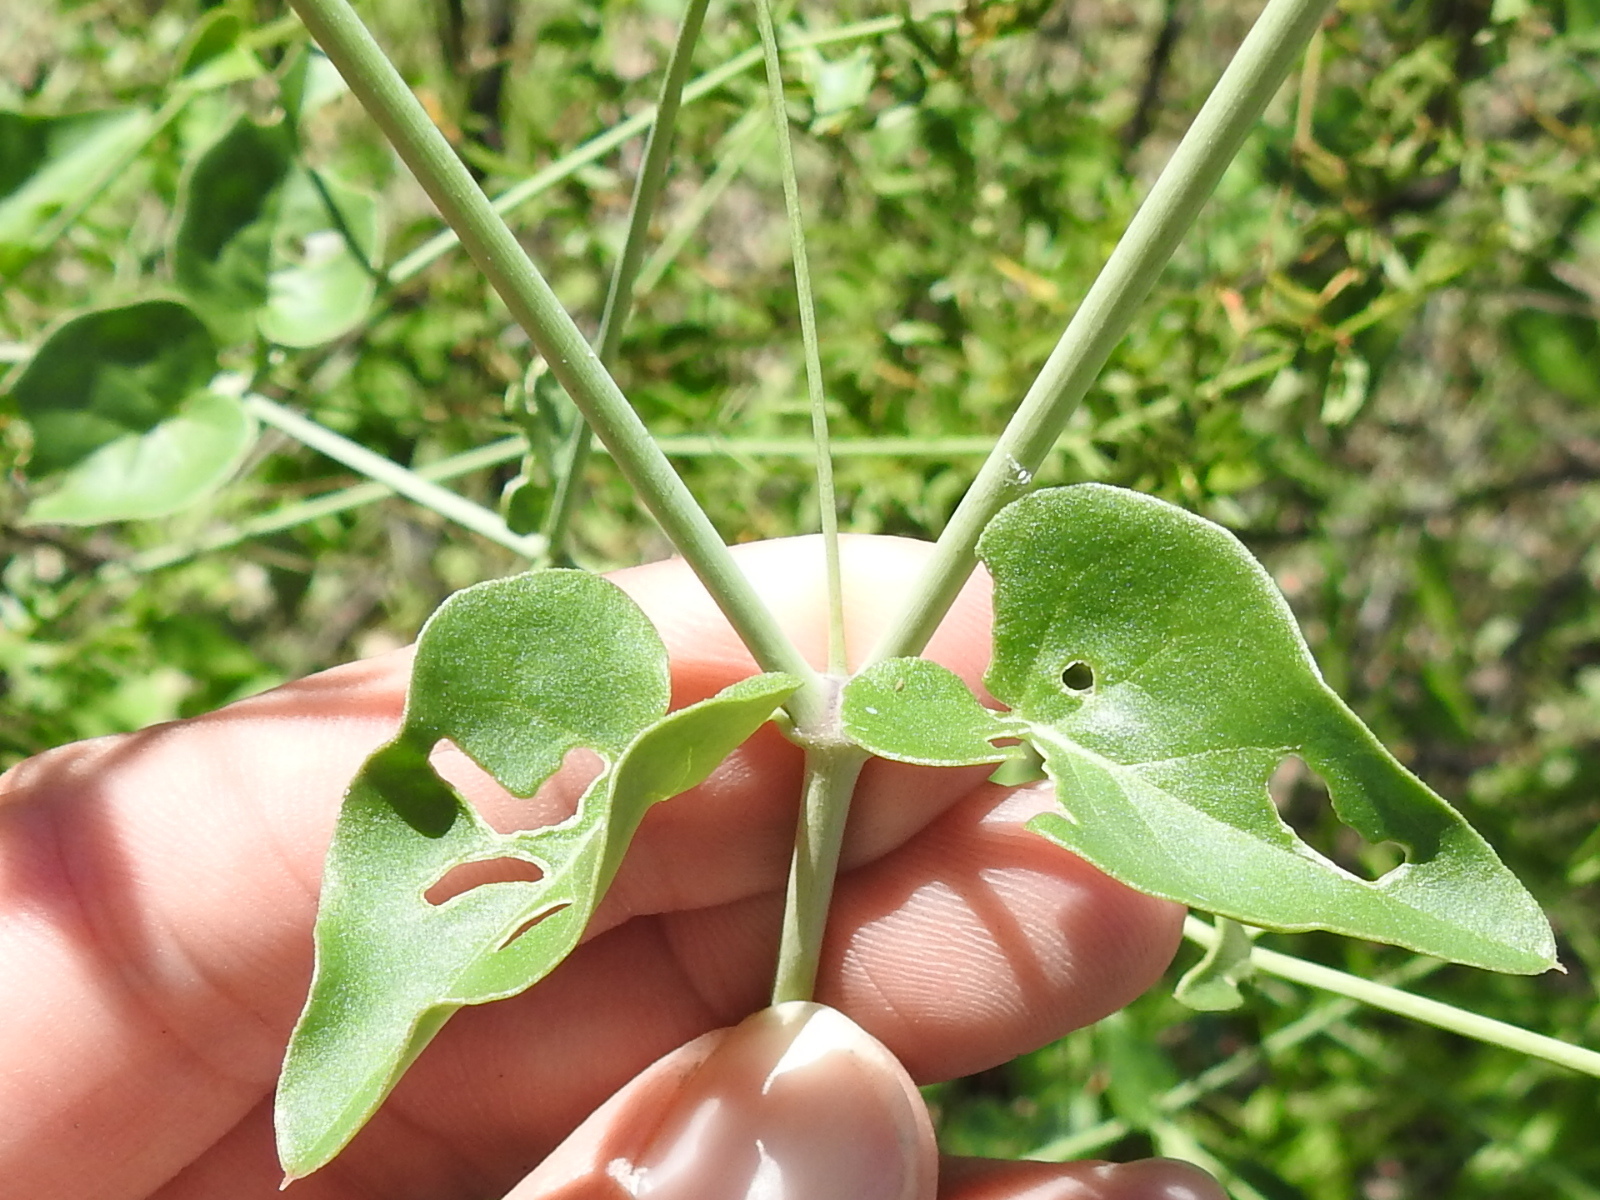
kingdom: Plantae
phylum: Tracheophyta
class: Magnoliopsida
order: Caryophyllales
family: Nyctaginaceae
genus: Commicarpus
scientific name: Commicarpus scandens
